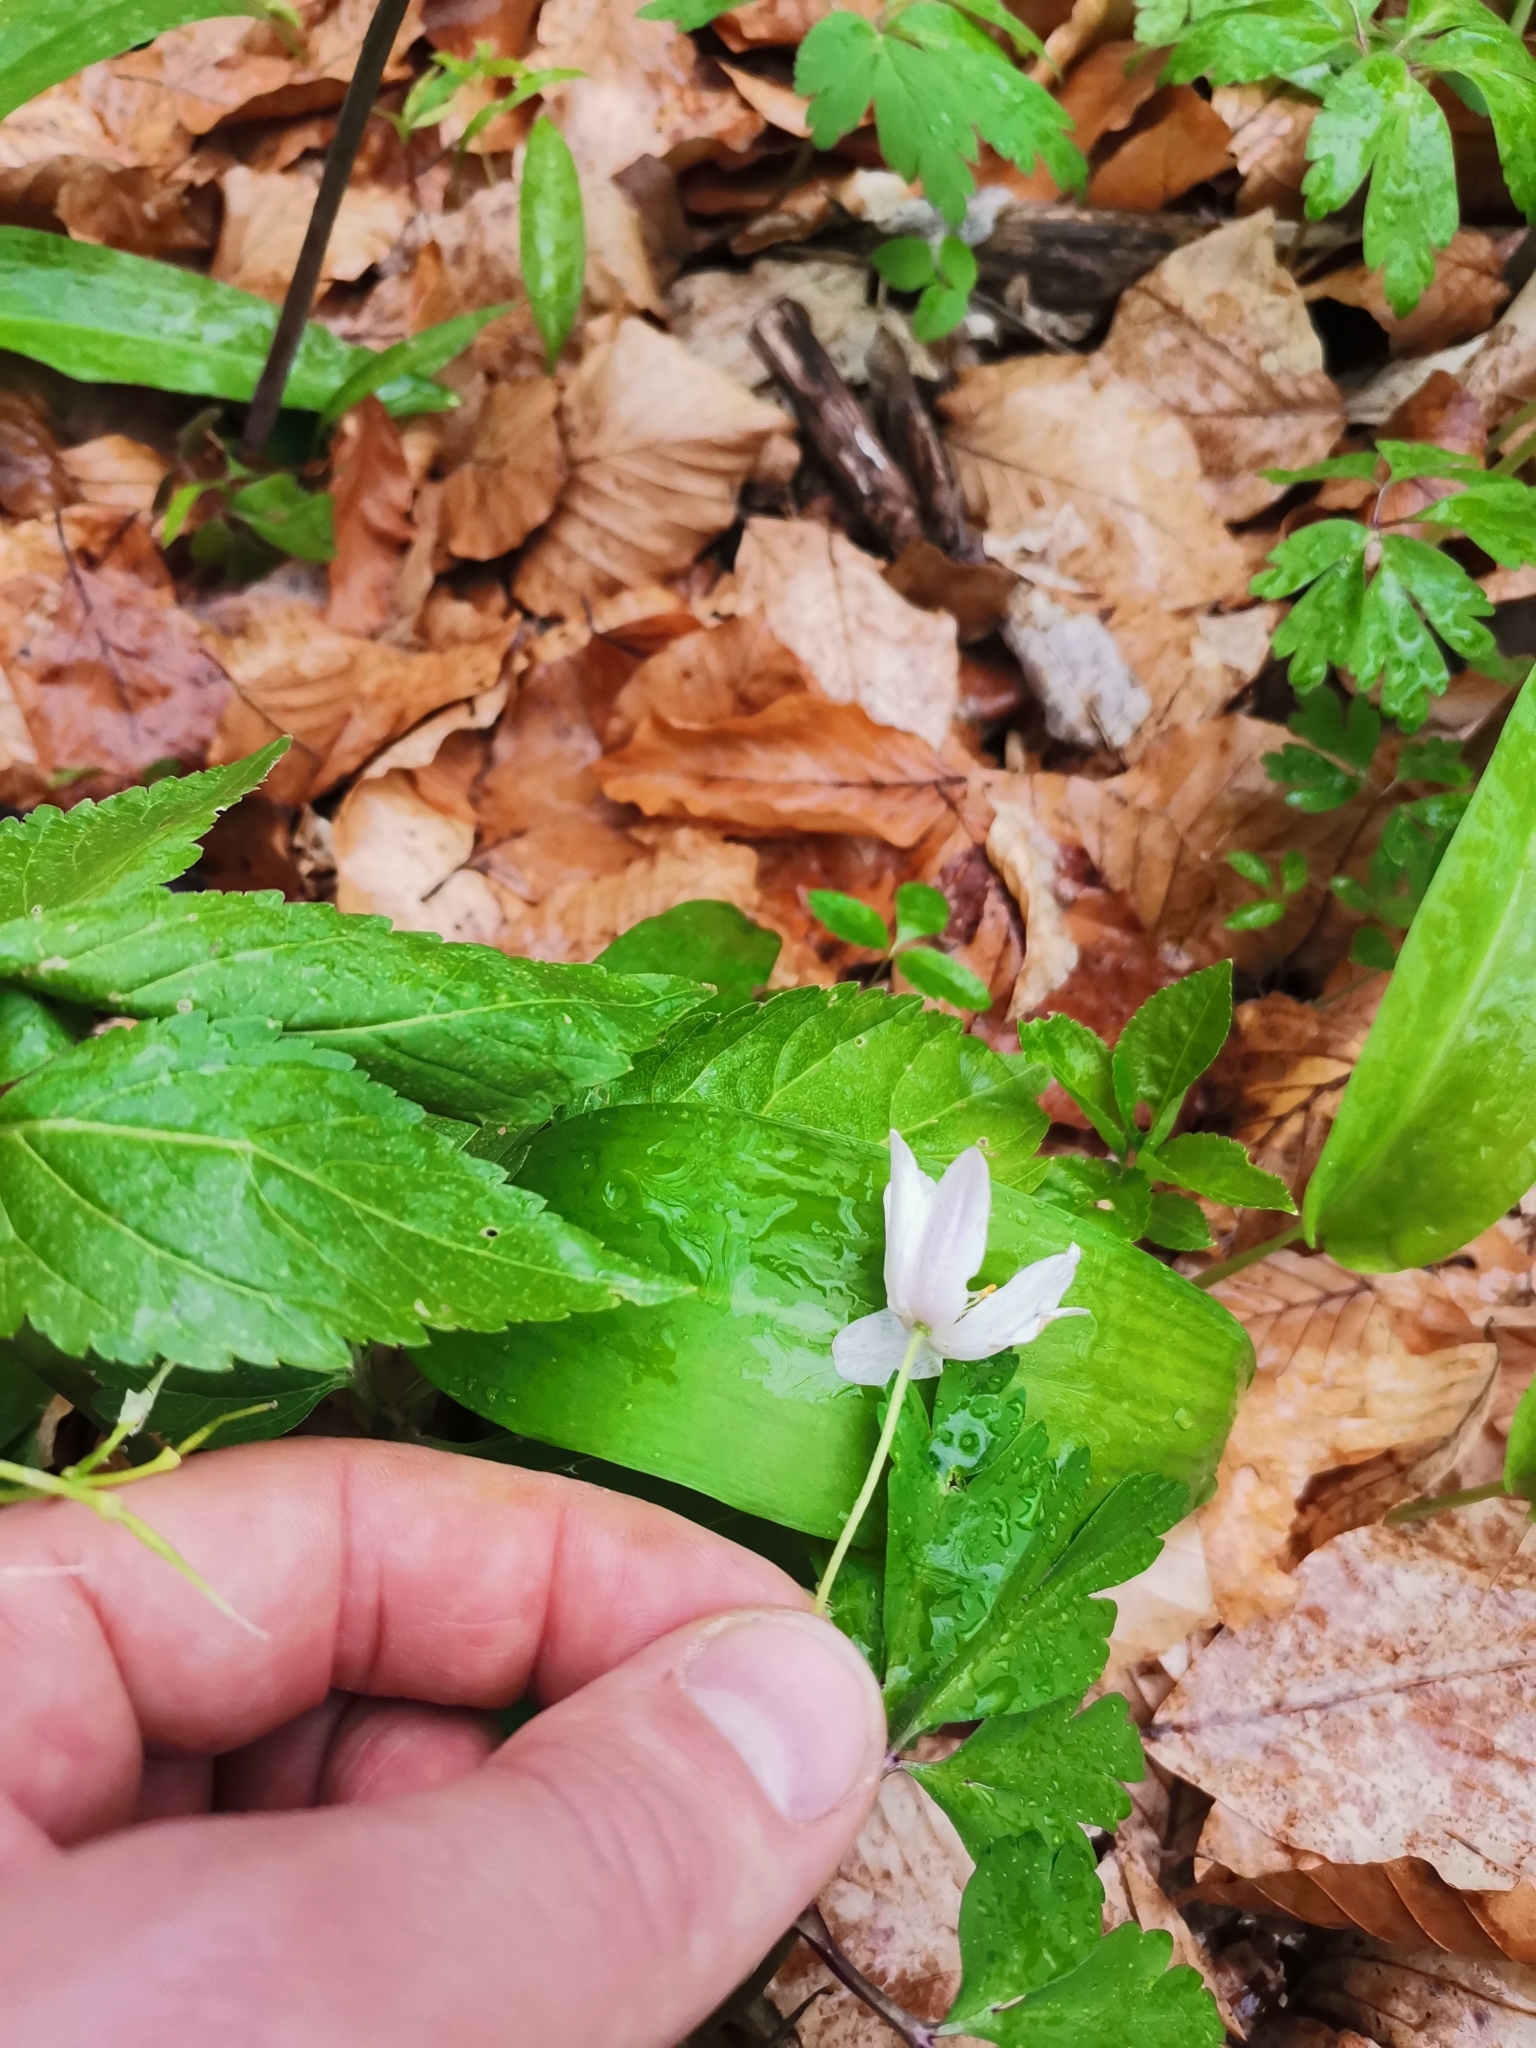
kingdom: Plantae
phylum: Tracheophyta
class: Magnoliopsida
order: Ranunculales
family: Ranunculaceae
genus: Anemone
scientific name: Anemone nemorosa
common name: Wood anemone
